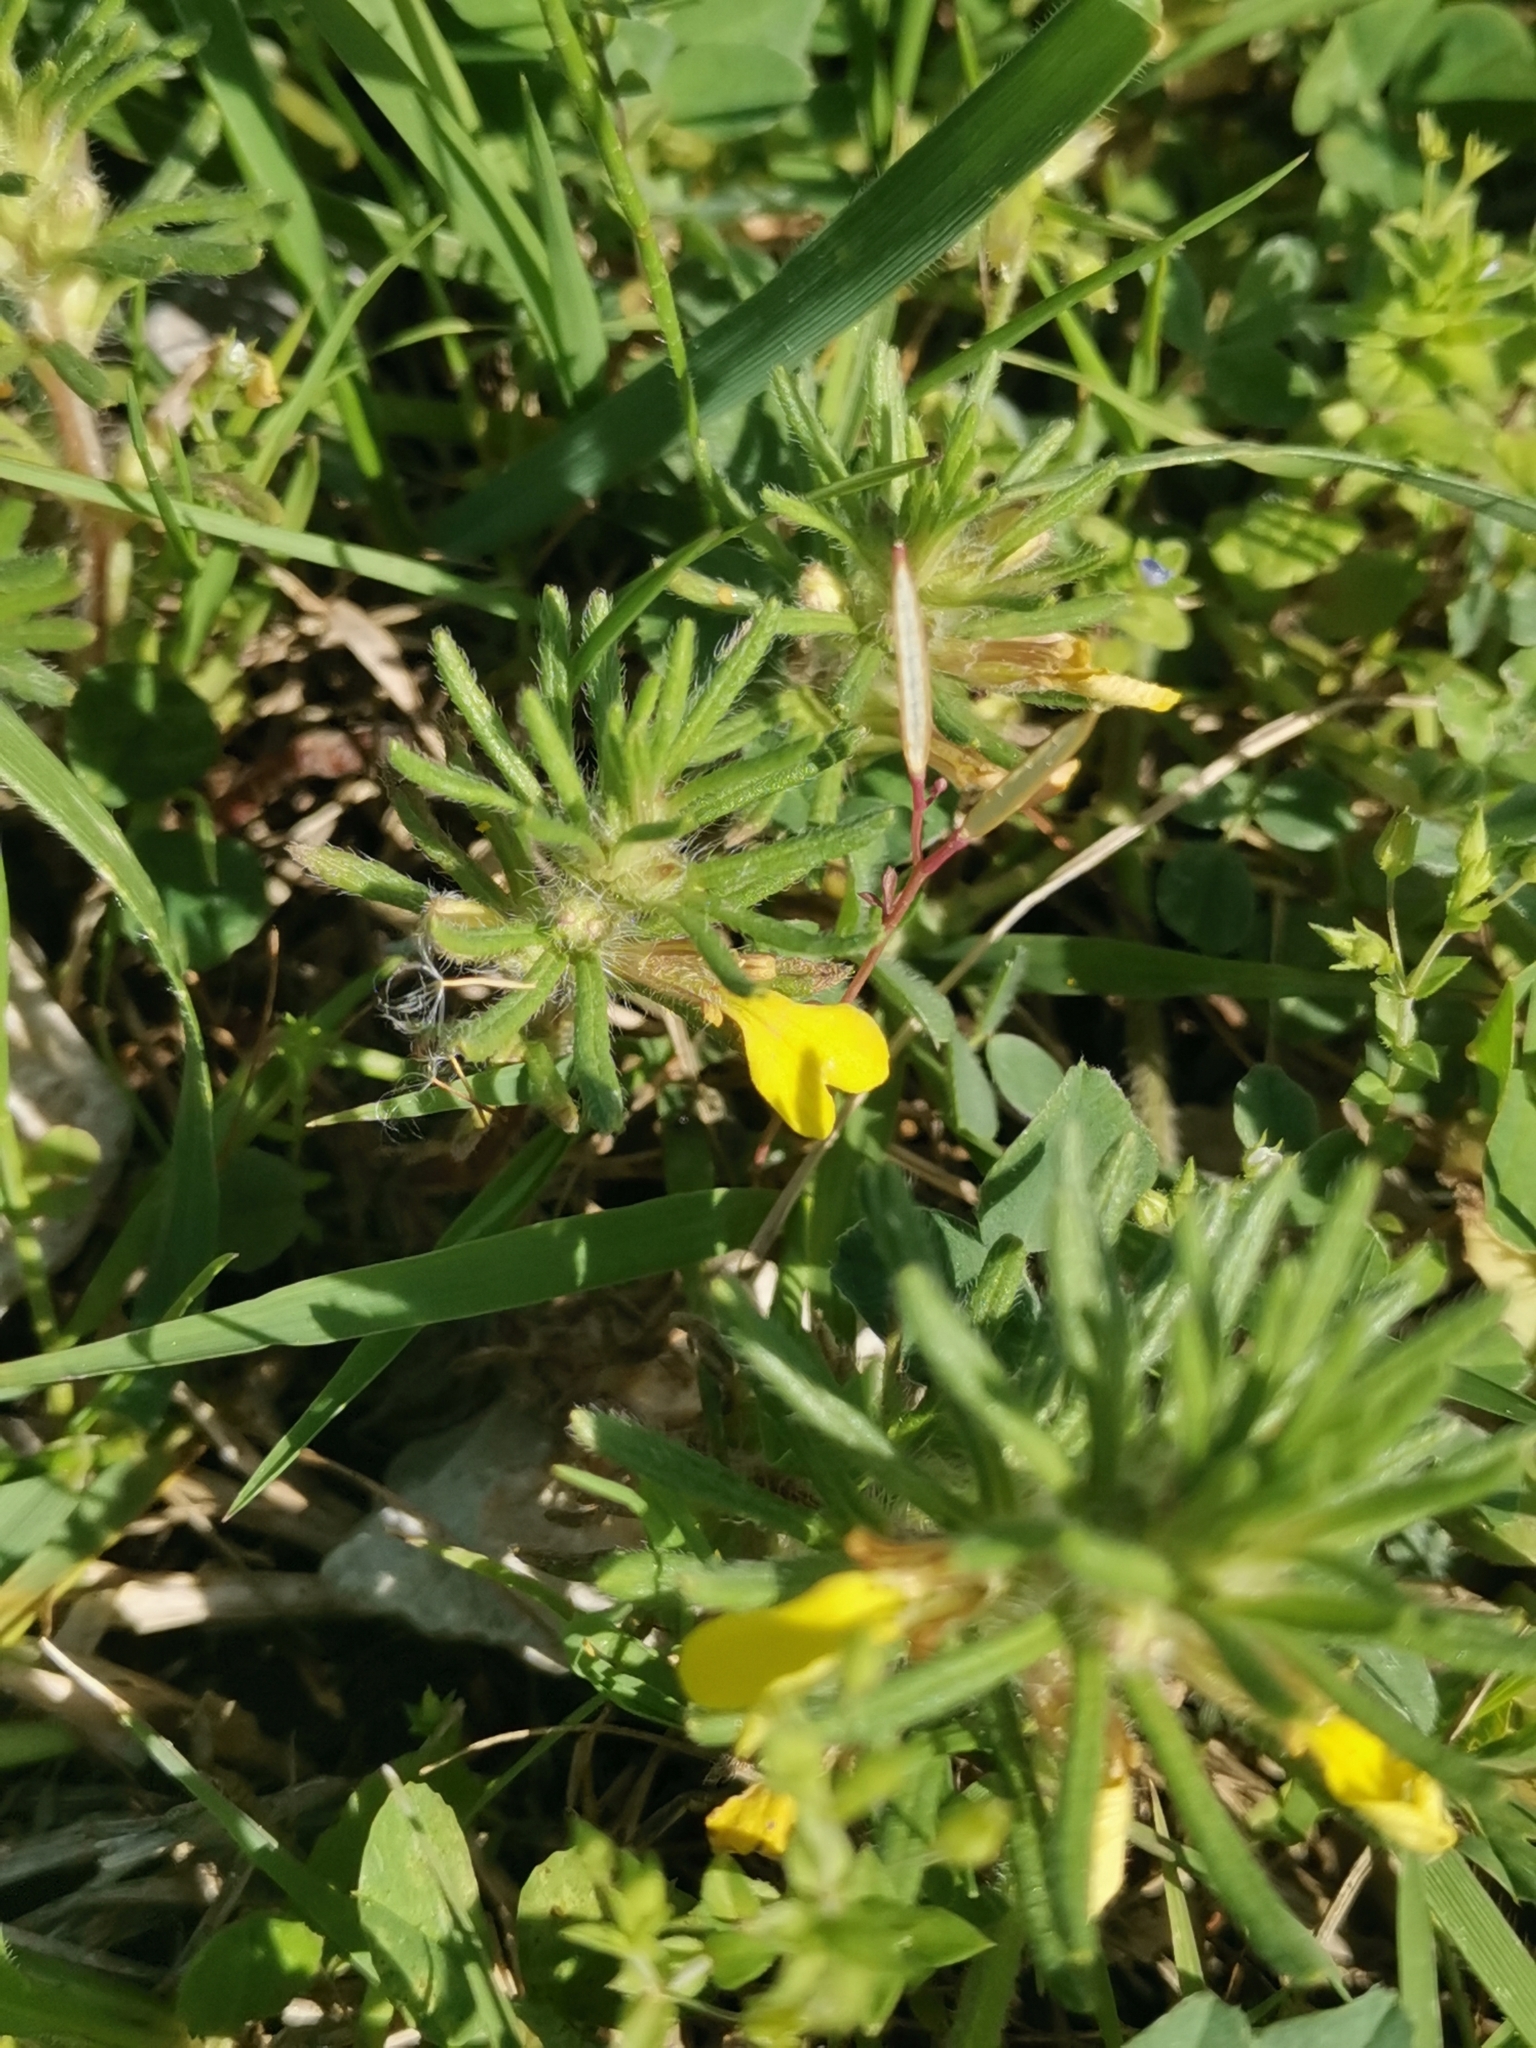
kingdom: Plantae
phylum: Tracheophyta
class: Magnoliopsida
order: Lamiales
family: Lamiaceae
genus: Ajuga
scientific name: Ajuga chamaepitys
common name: Ground-pine
